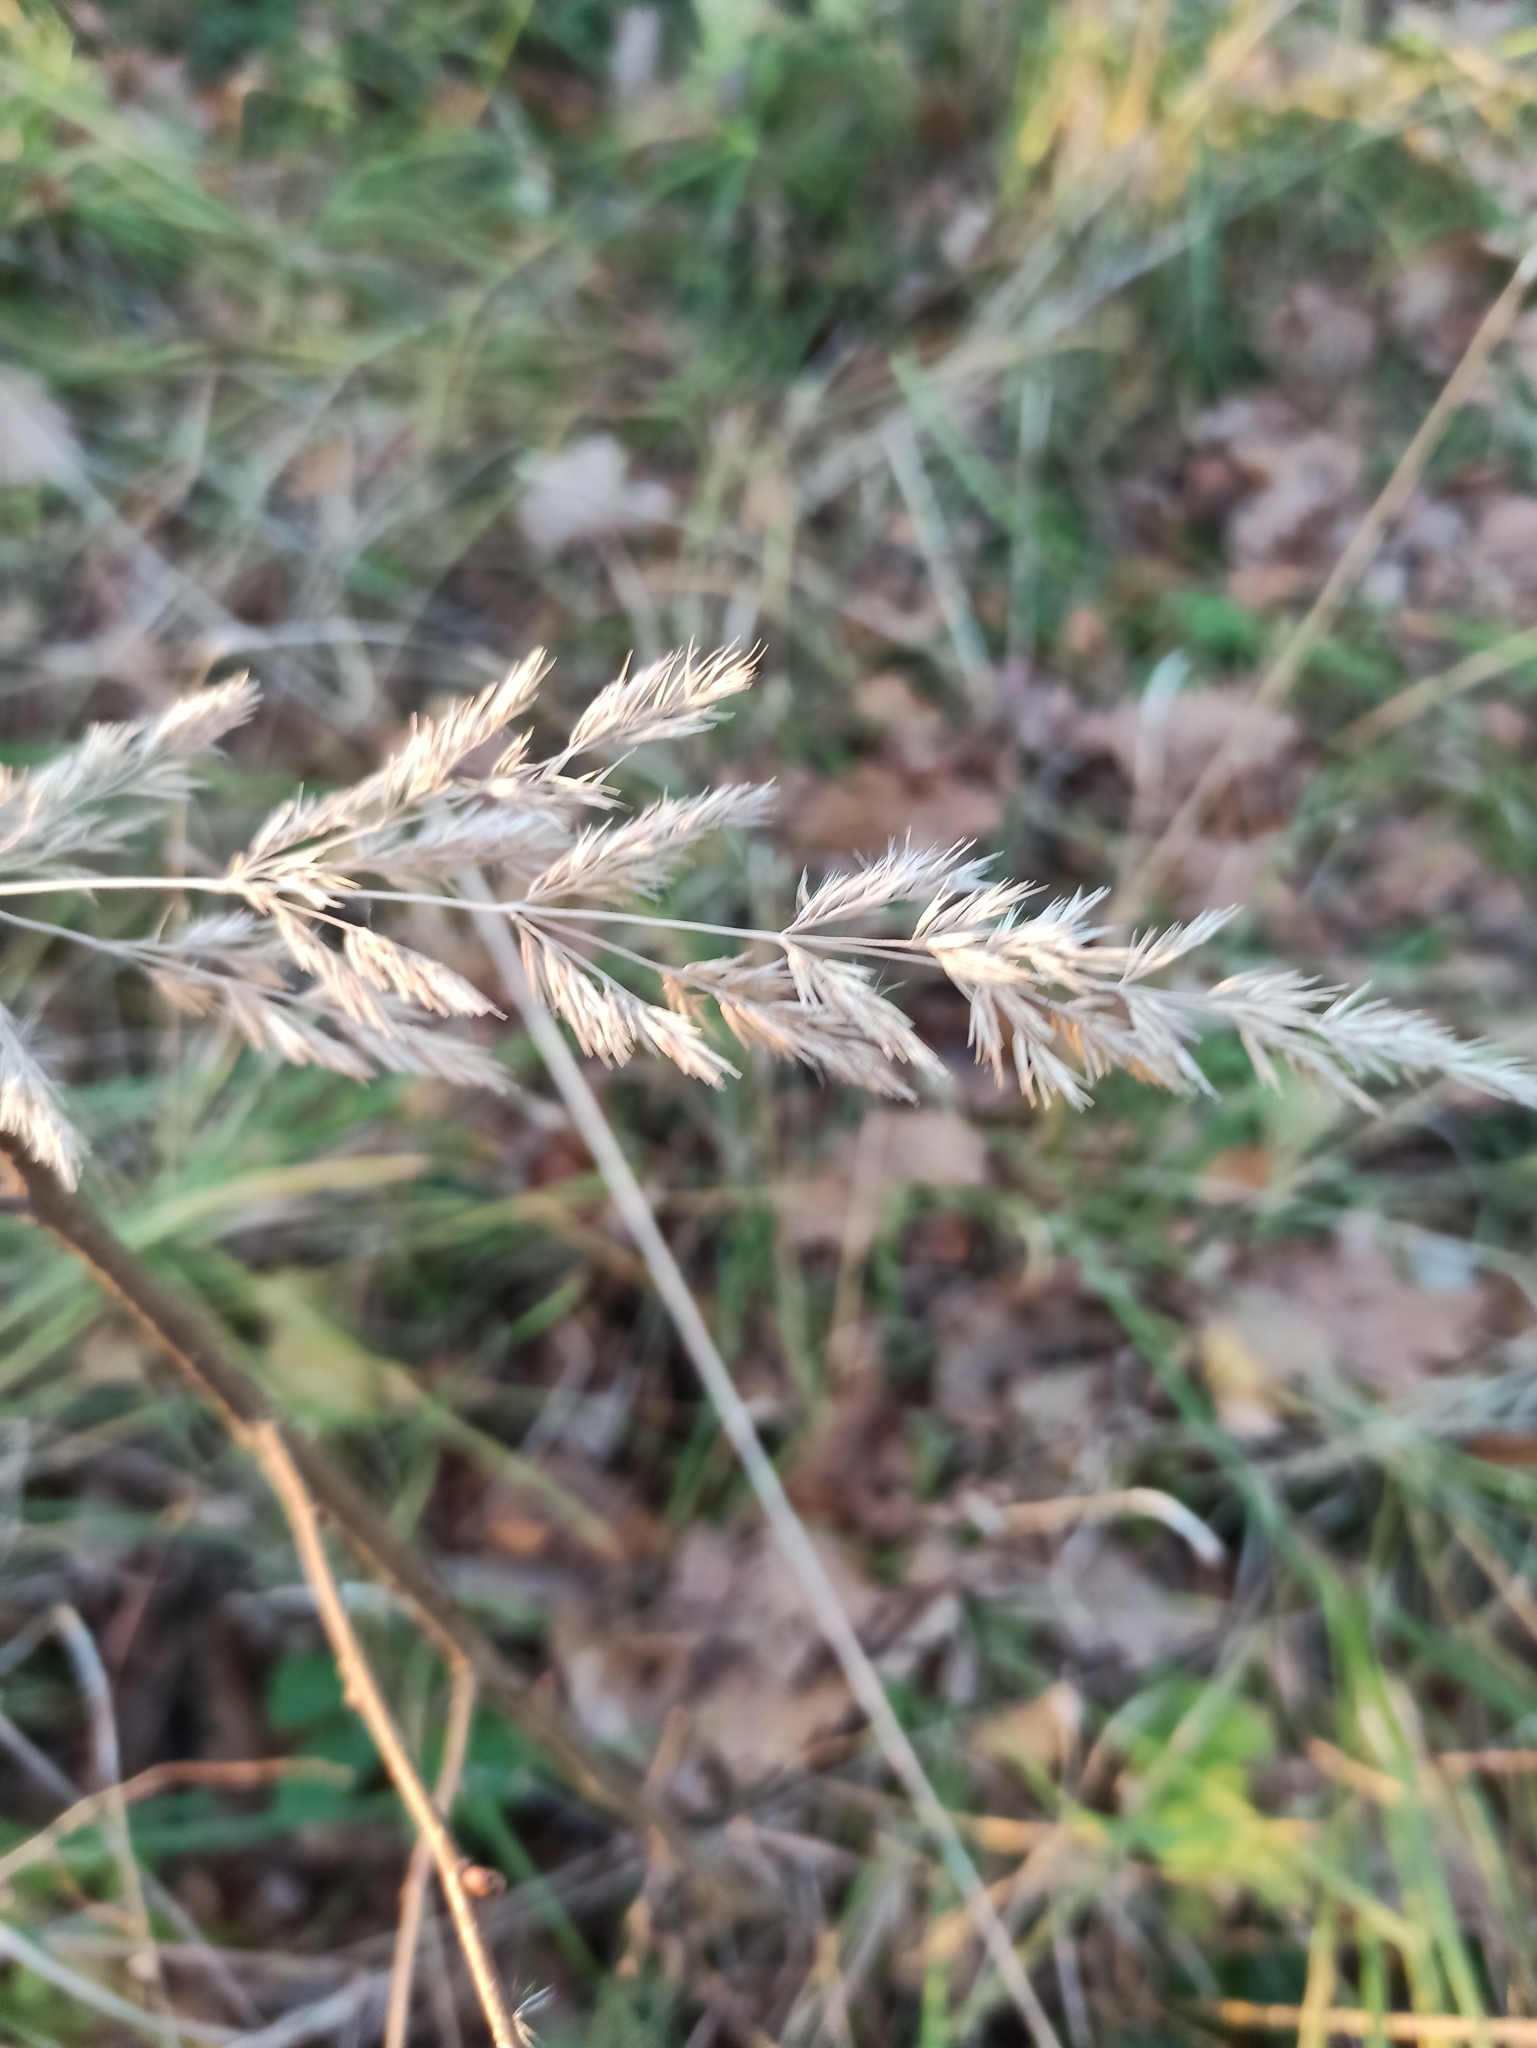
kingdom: Plantae
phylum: Tracheophyta
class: Liliopsida
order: Poales
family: Poaceae
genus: Calamagrostis
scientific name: Calamagrostis epigejos
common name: Wood small-reed
